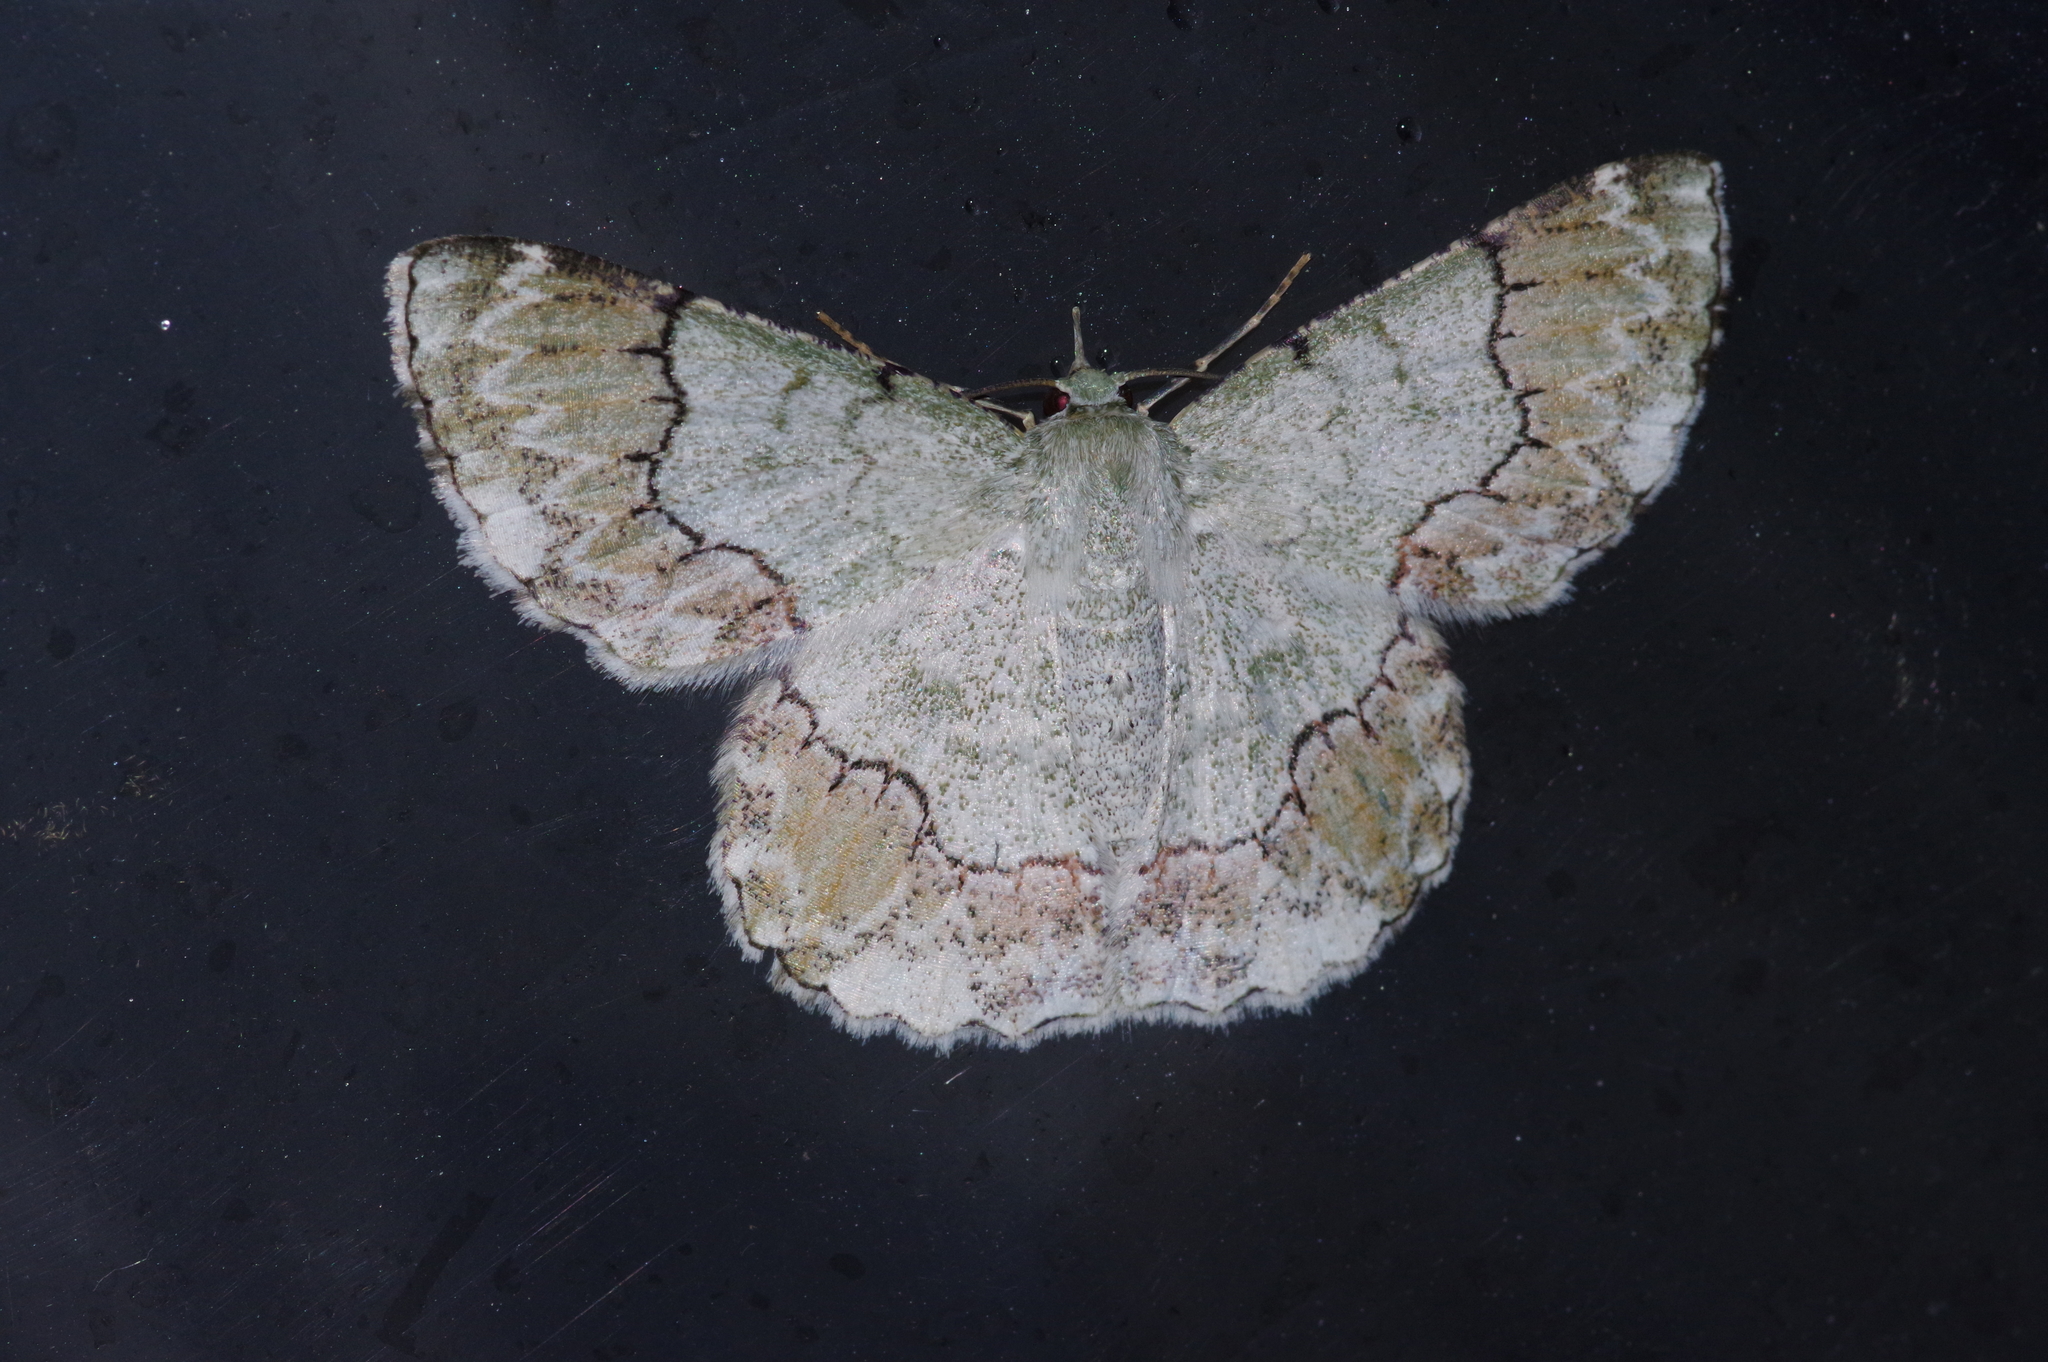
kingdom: Animalia
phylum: Arthropoda
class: Insecta
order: Lepidoptera
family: Geometridae
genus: Pingasa
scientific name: Pingasa ruginaria
